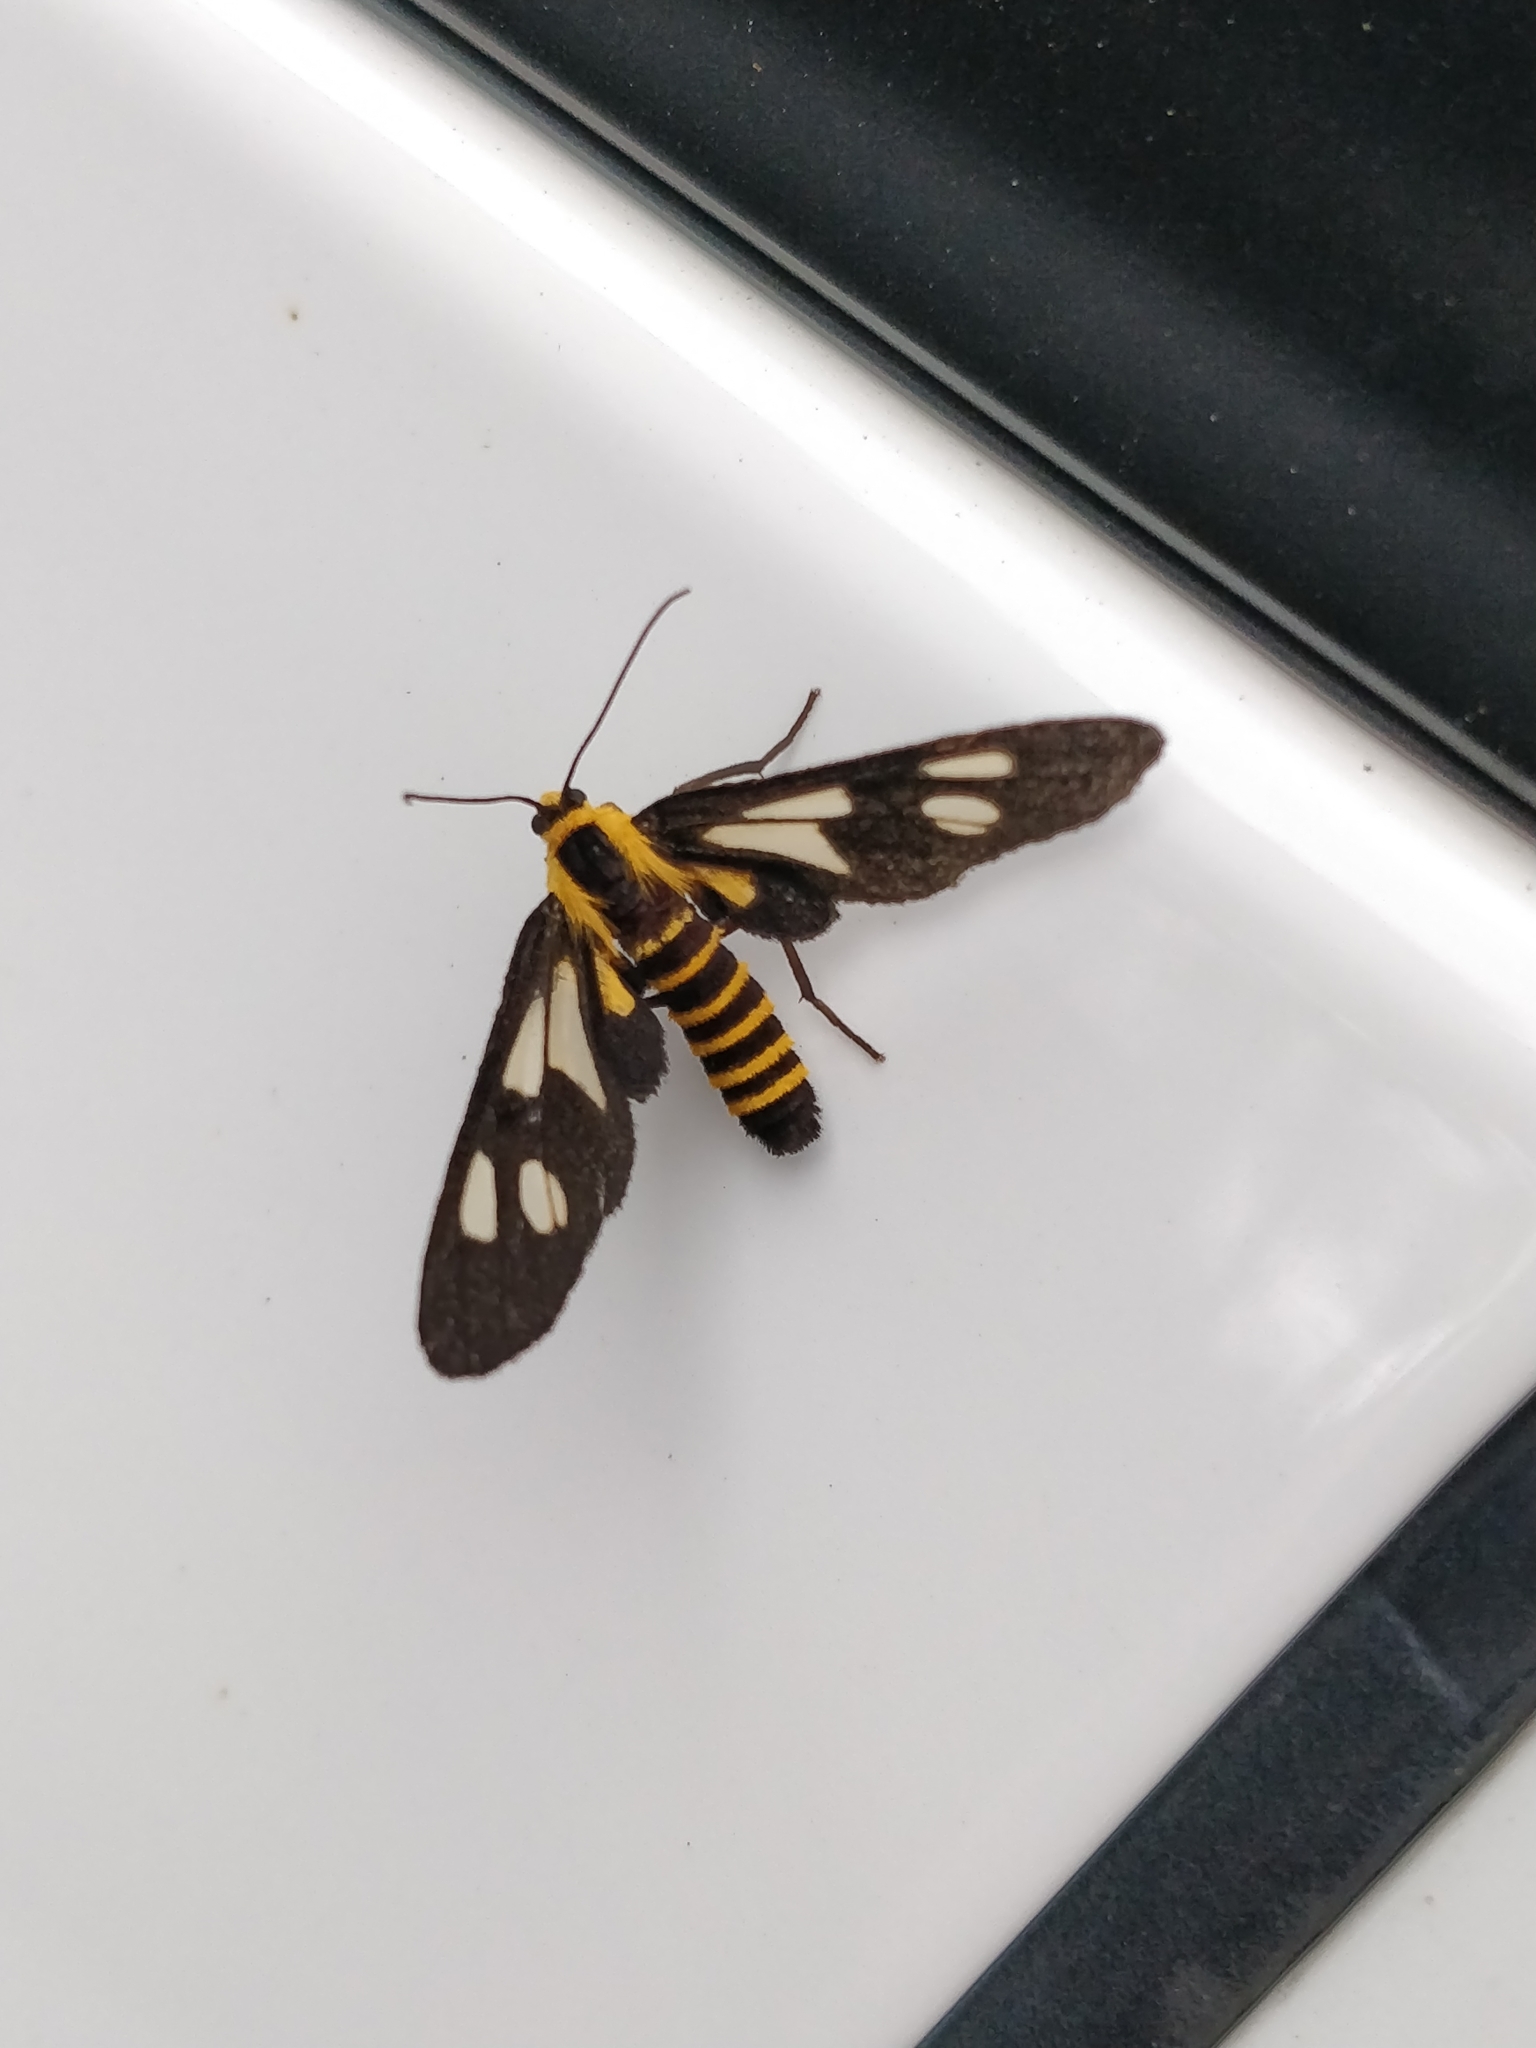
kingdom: Animalia
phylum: Arthropoda
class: Insecta
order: Lepidoptera
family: Erebidae
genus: Eressa
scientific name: Eressa rhysoptila
